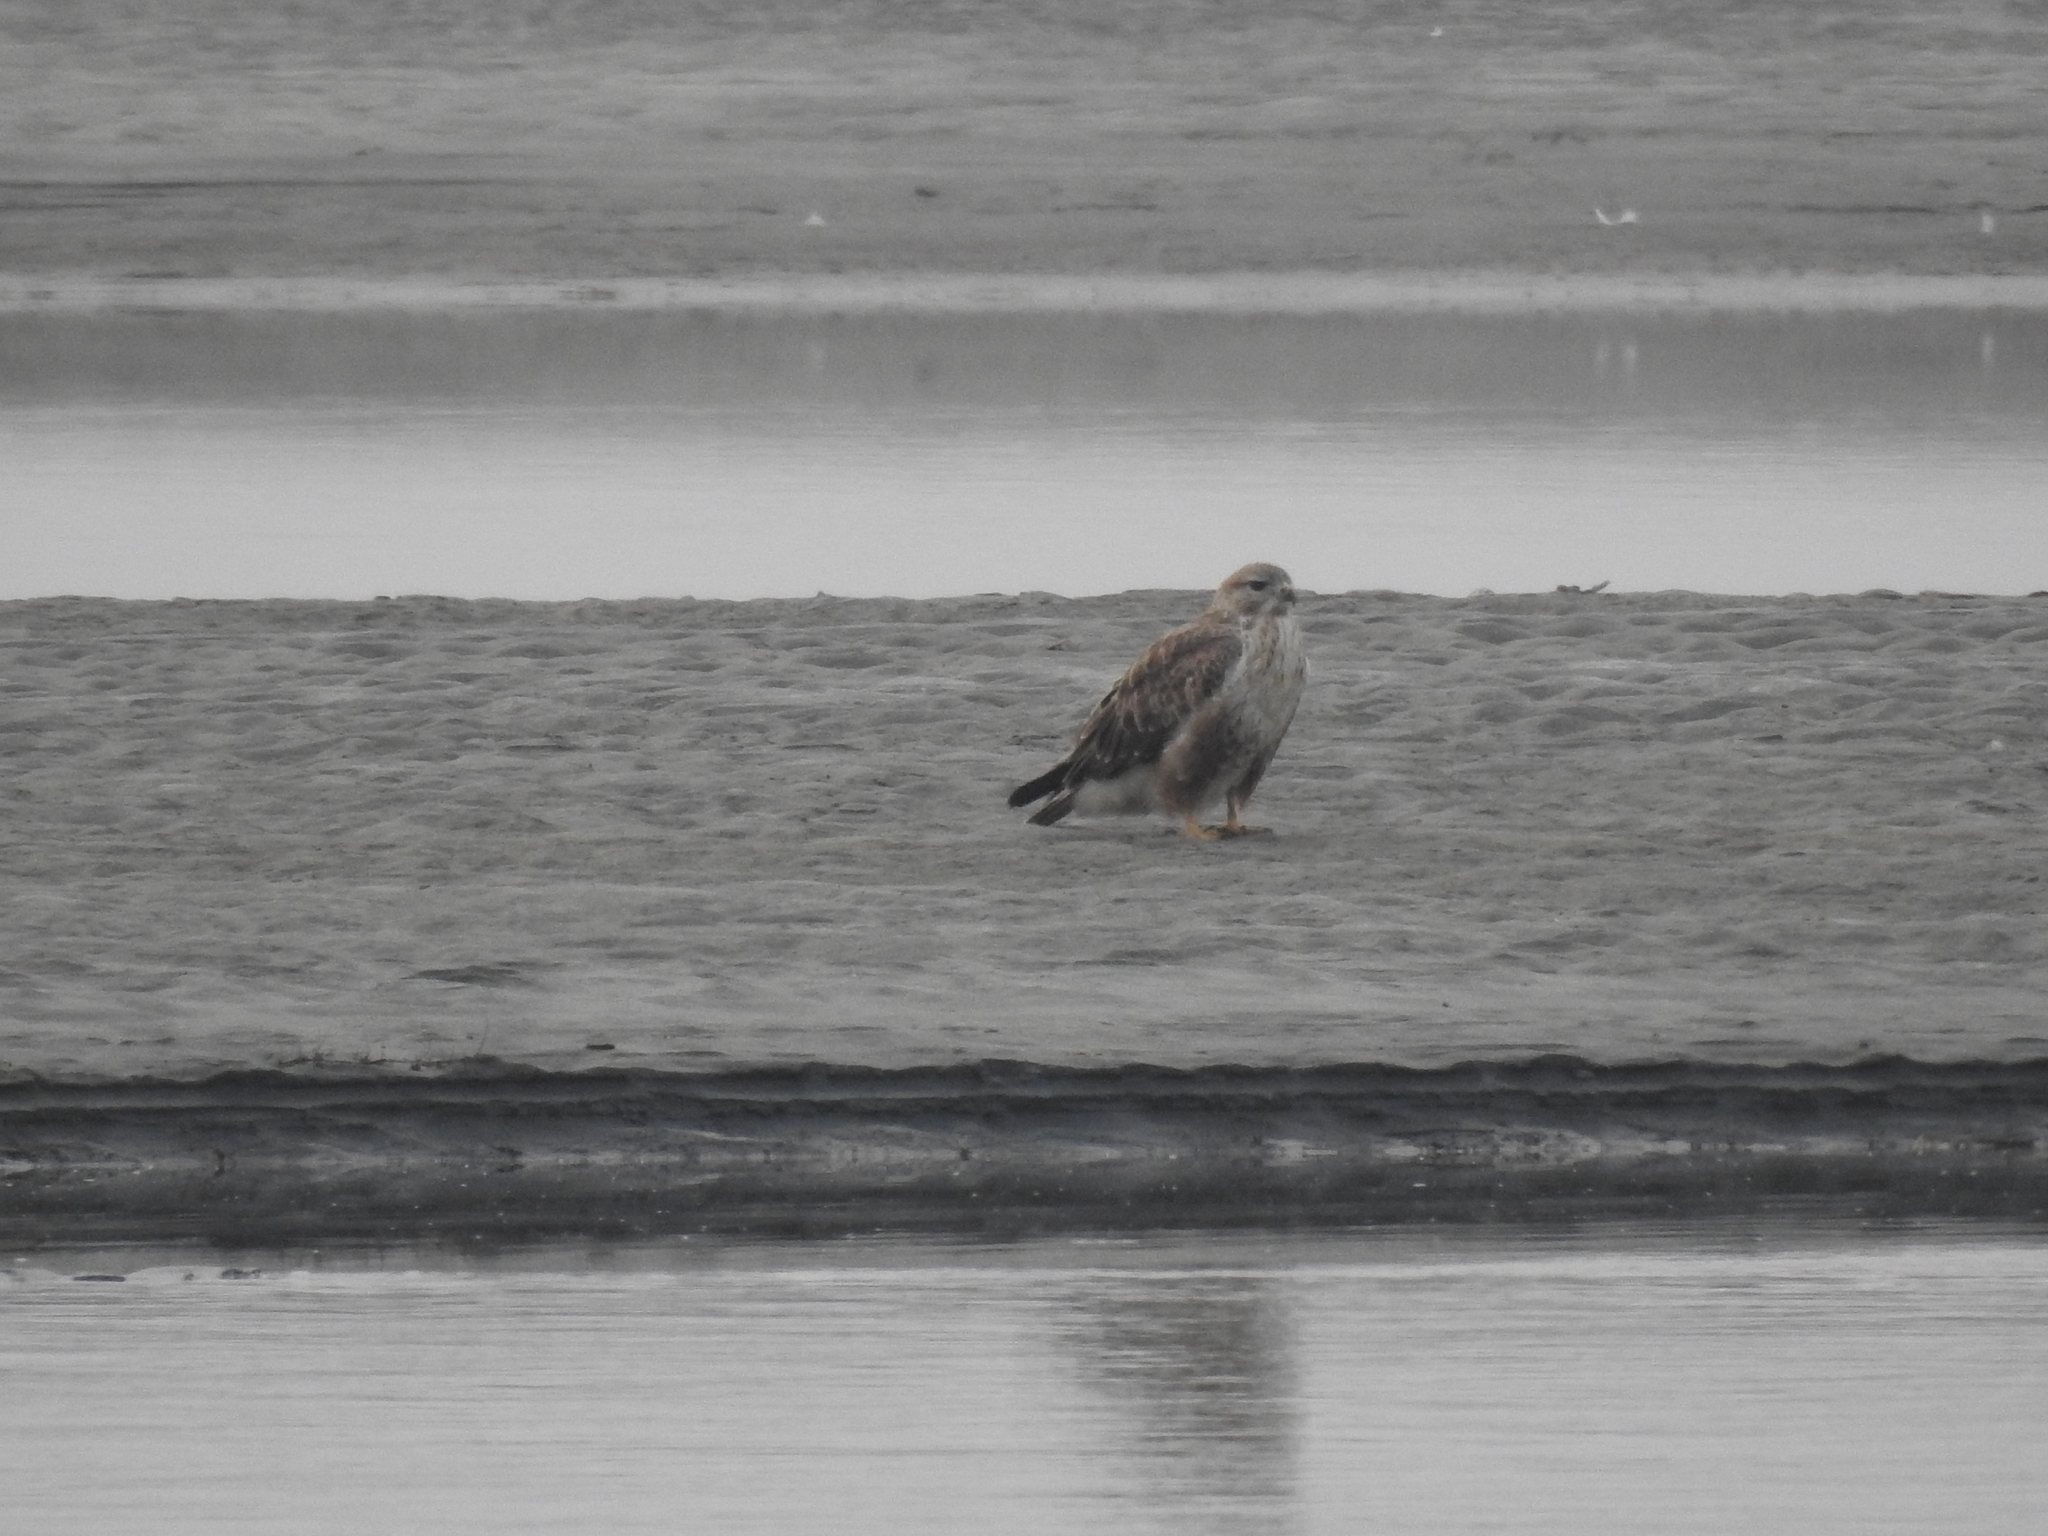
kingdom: Animalia
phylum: Chordata
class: Aves
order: Accipitriformes
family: Accipitridae
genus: Buteo
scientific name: Buteo refectus
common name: Himalayan buzzard
